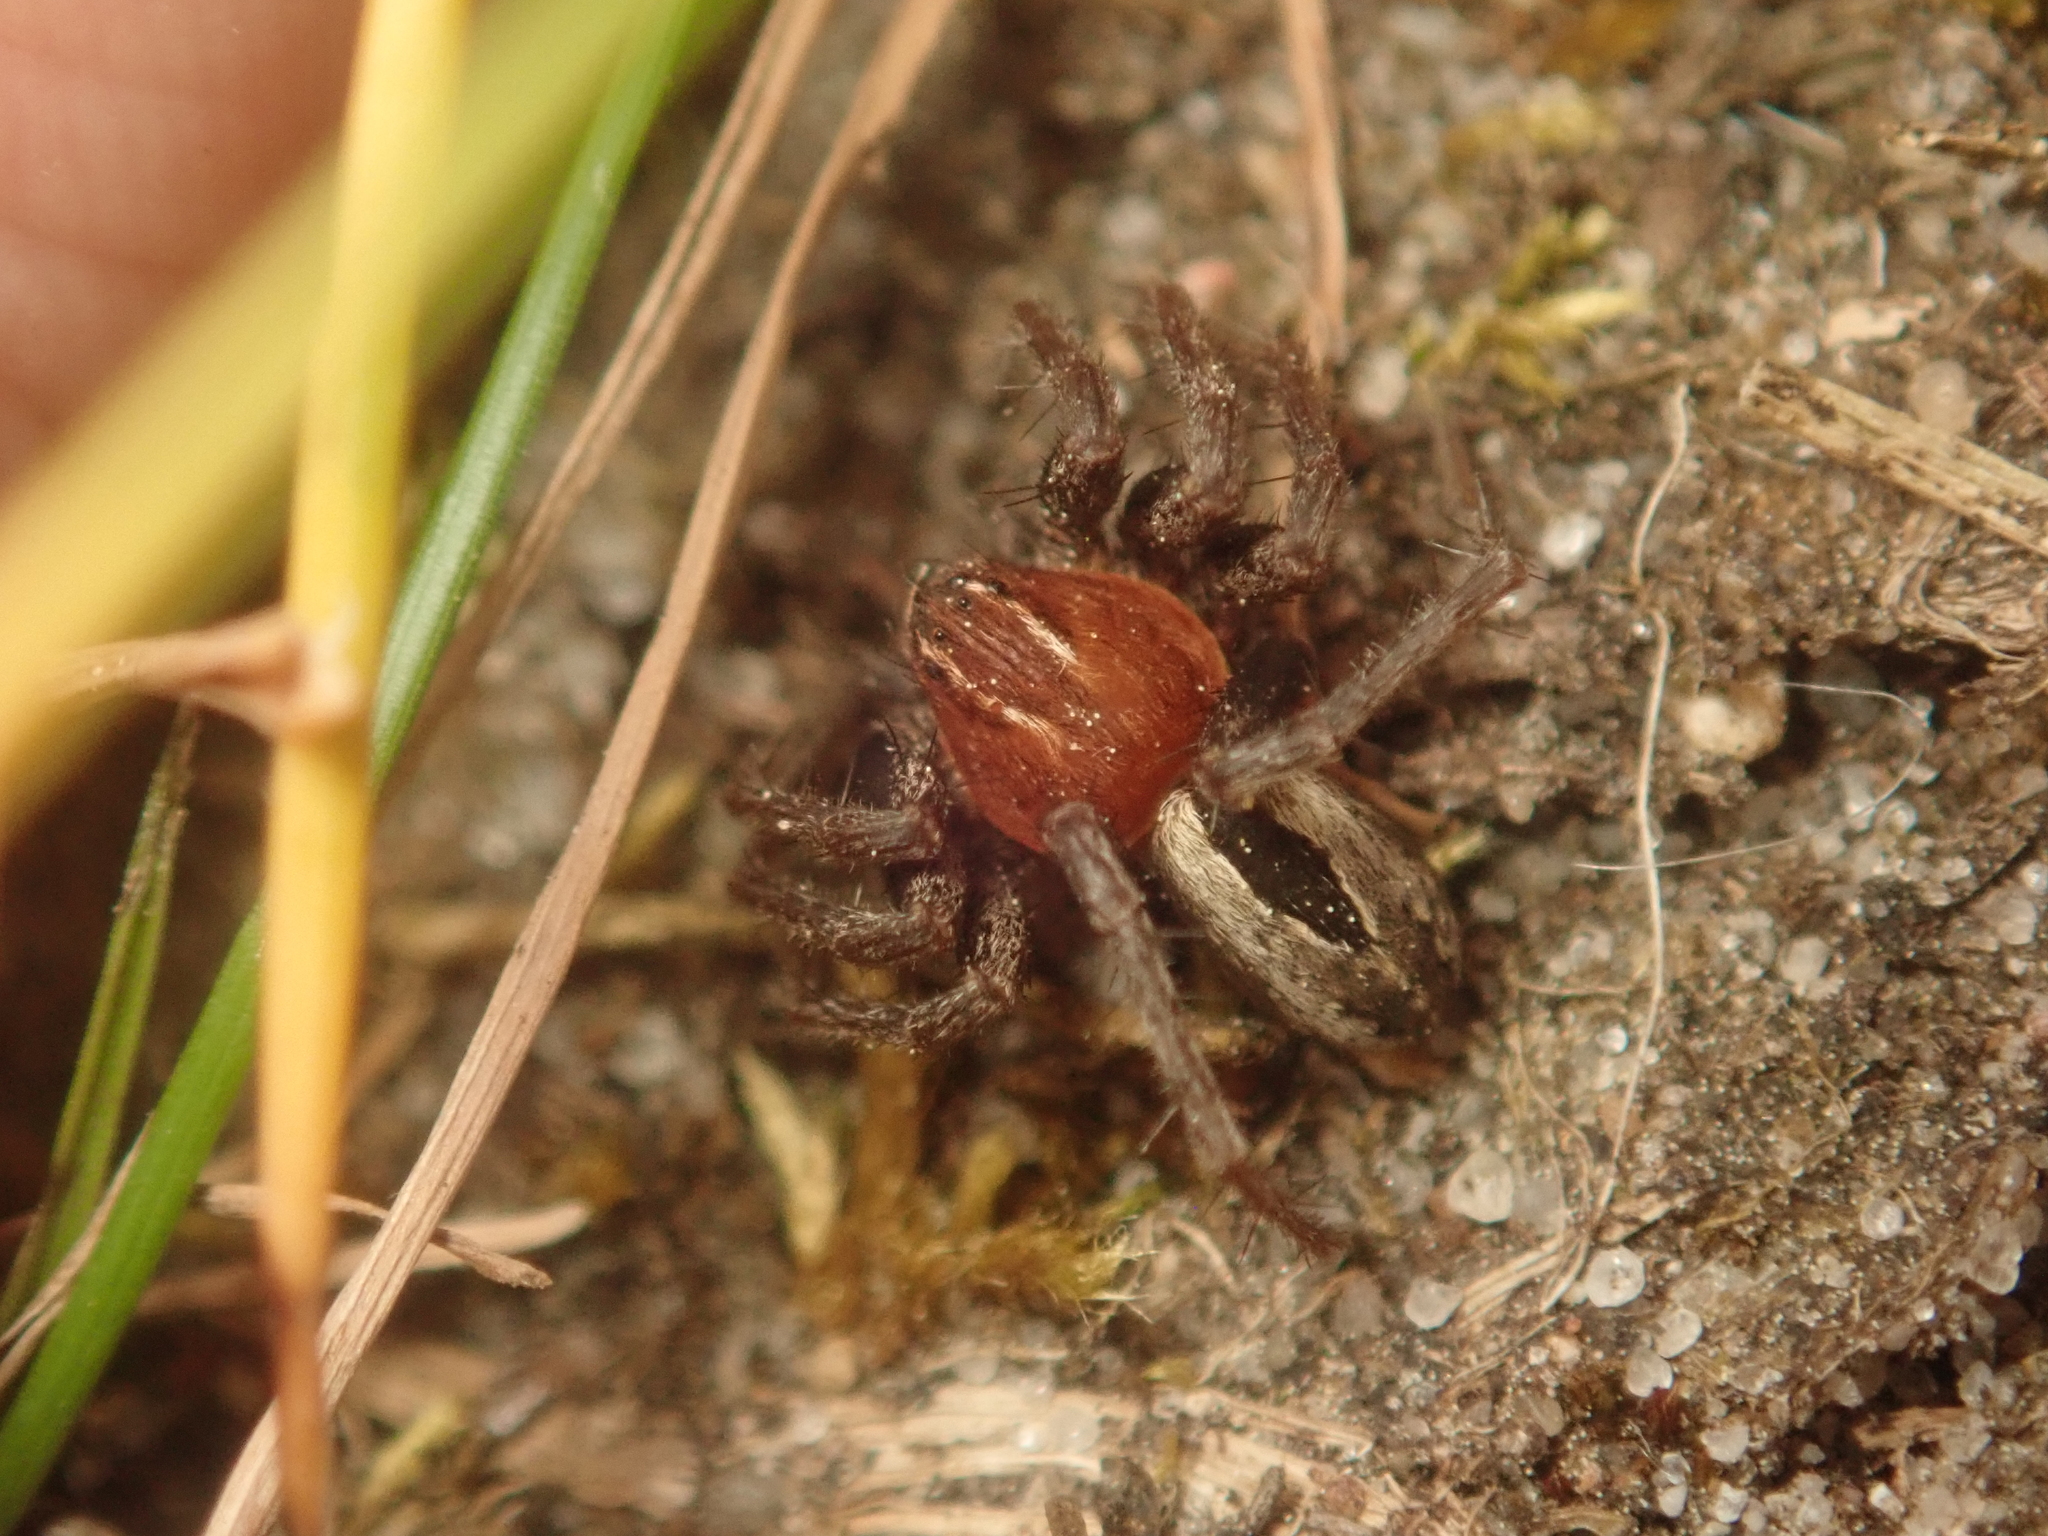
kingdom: Animalia
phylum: Arthropoda
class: Arachnida
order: Araneae
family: Philodromidae
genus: Thanatus
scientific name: Thanatus arenarius
